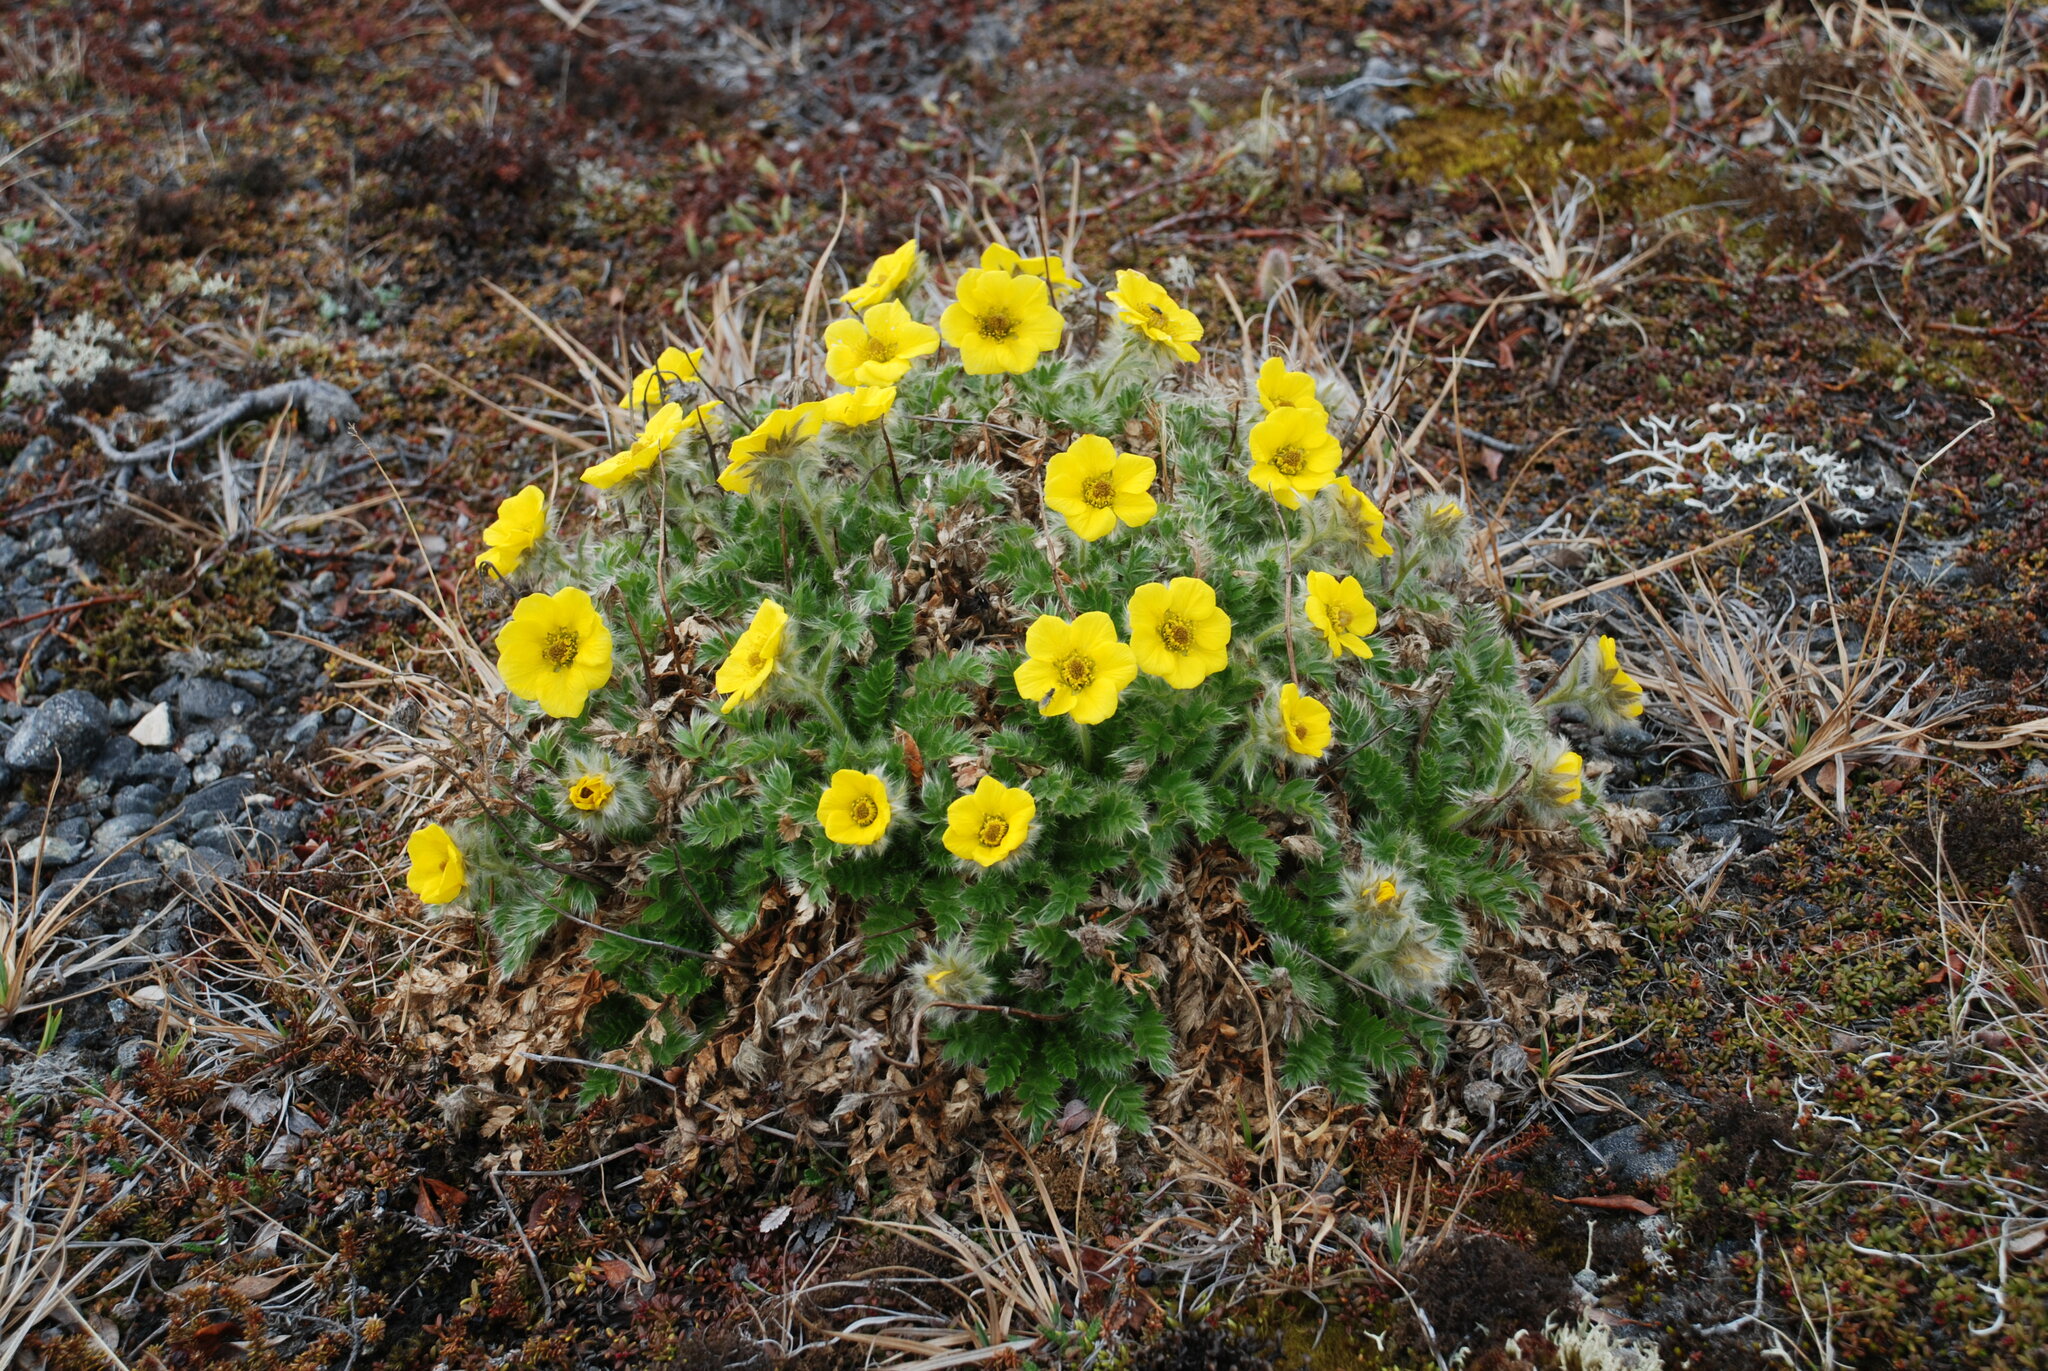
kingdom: Plantae
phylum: Tracheophyta
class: Magnoliopsida
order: Rosales
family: Rosaceae
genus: Geum
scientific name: Geum glaciale
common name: Glacier avens
